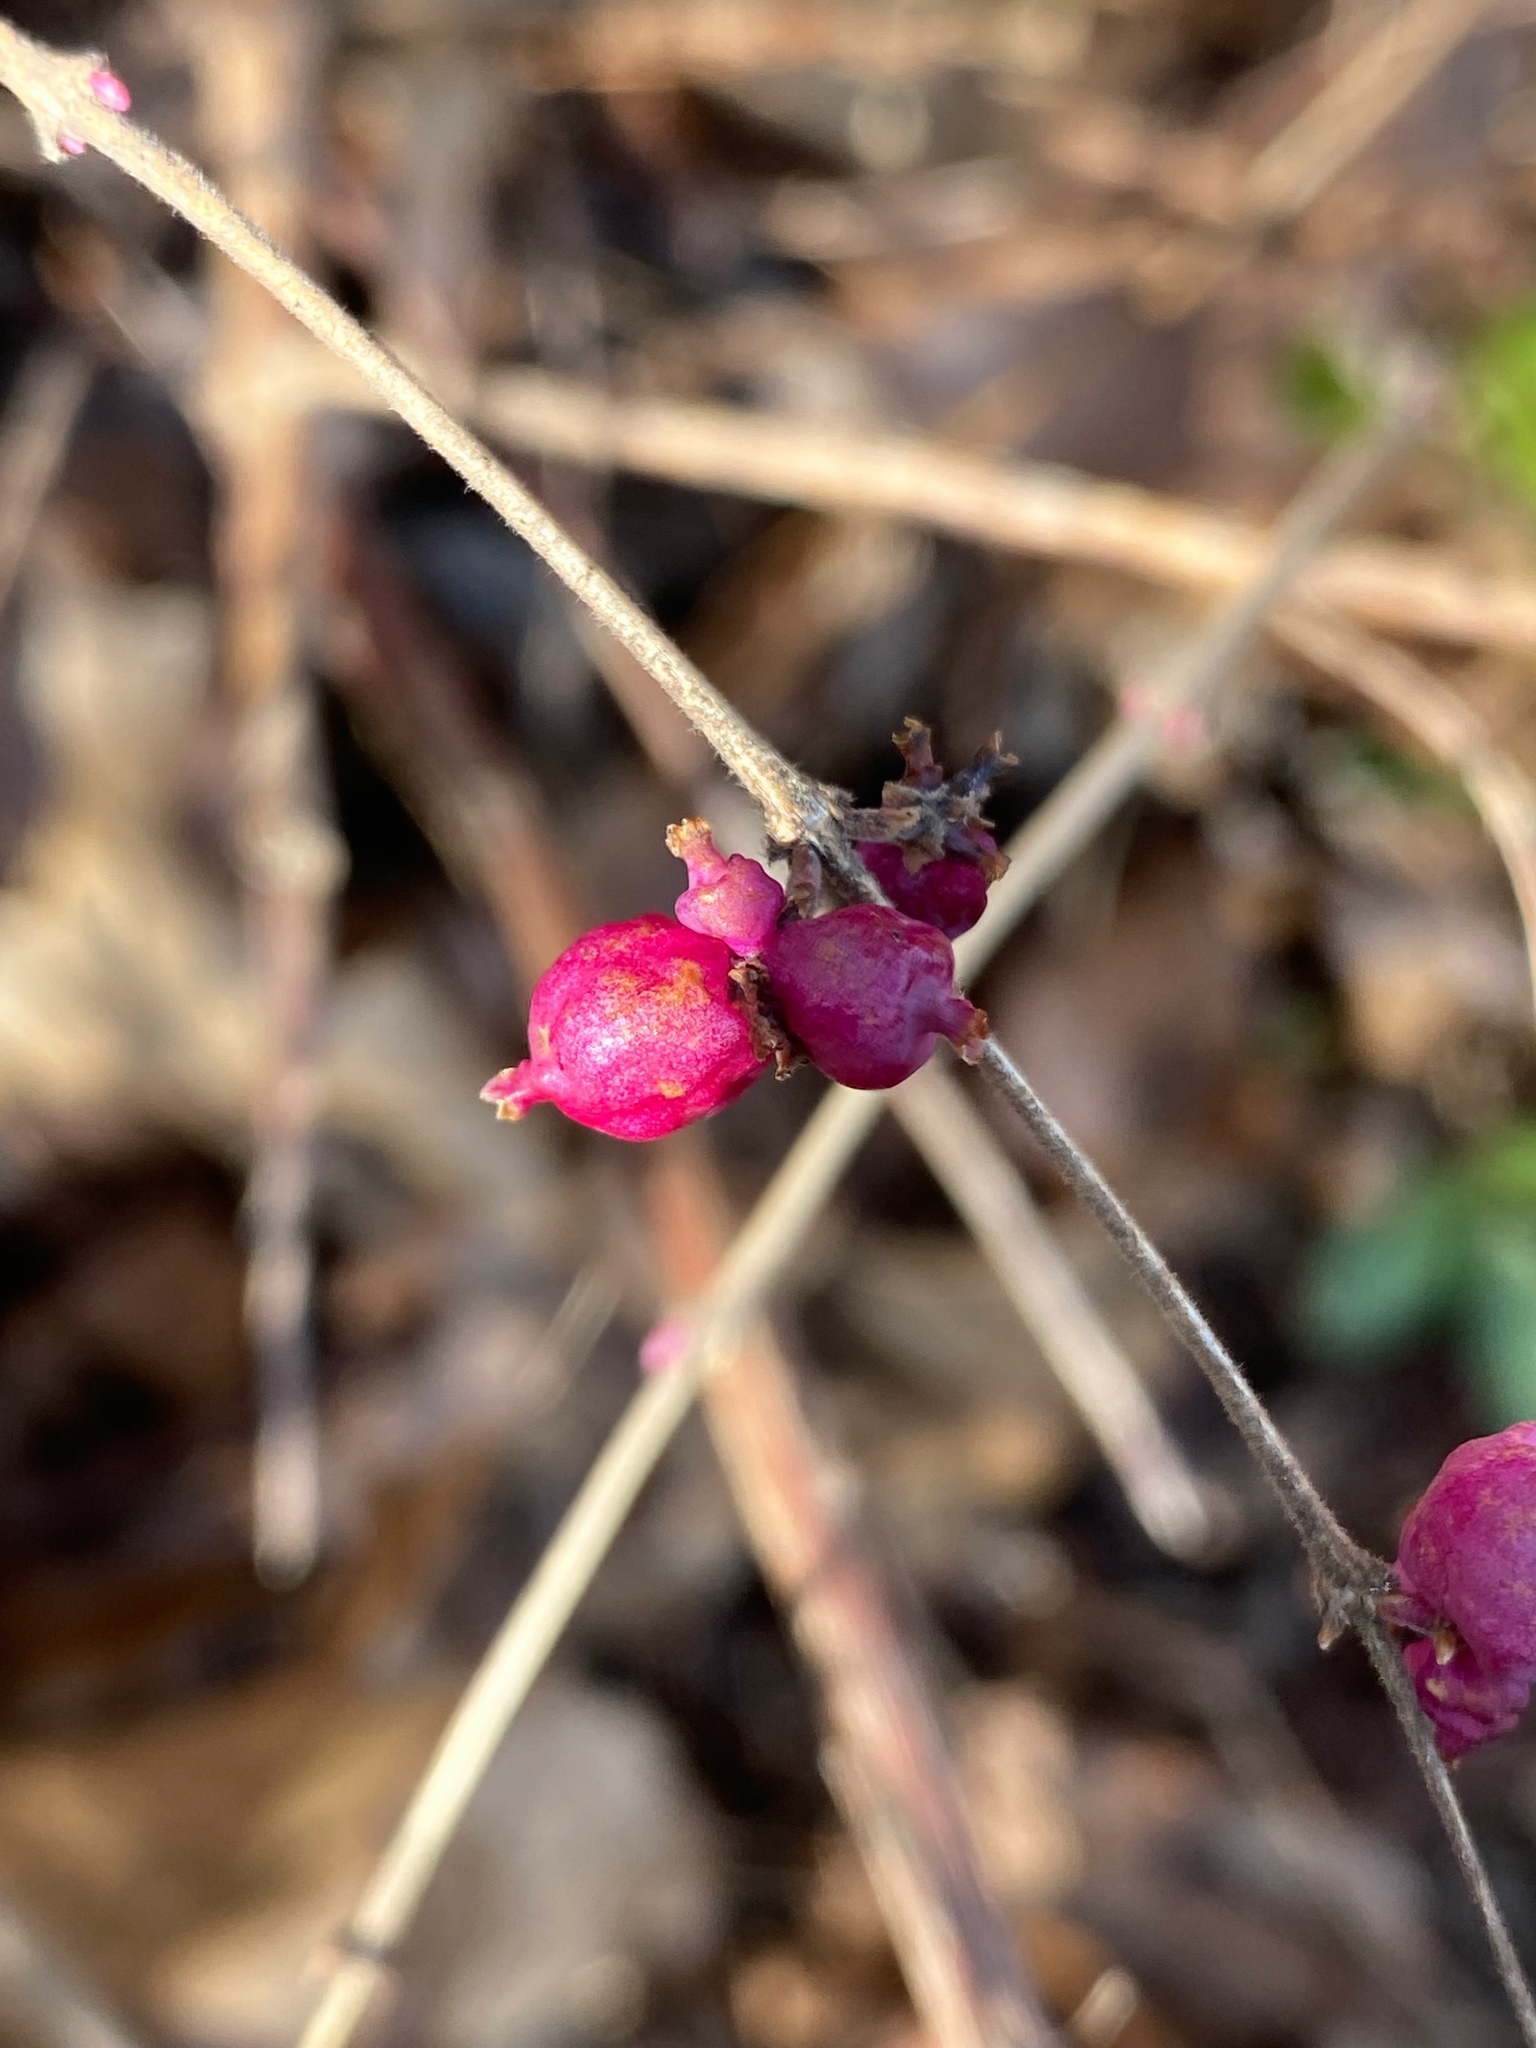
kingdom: Plantae
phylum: Tracheophyta
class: Magnoliopsida
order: Dipsacales
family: Caprifoliaceae
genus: Symphoricarpos
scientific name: Symphoricarpos orbiculatus
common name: Coralberry
